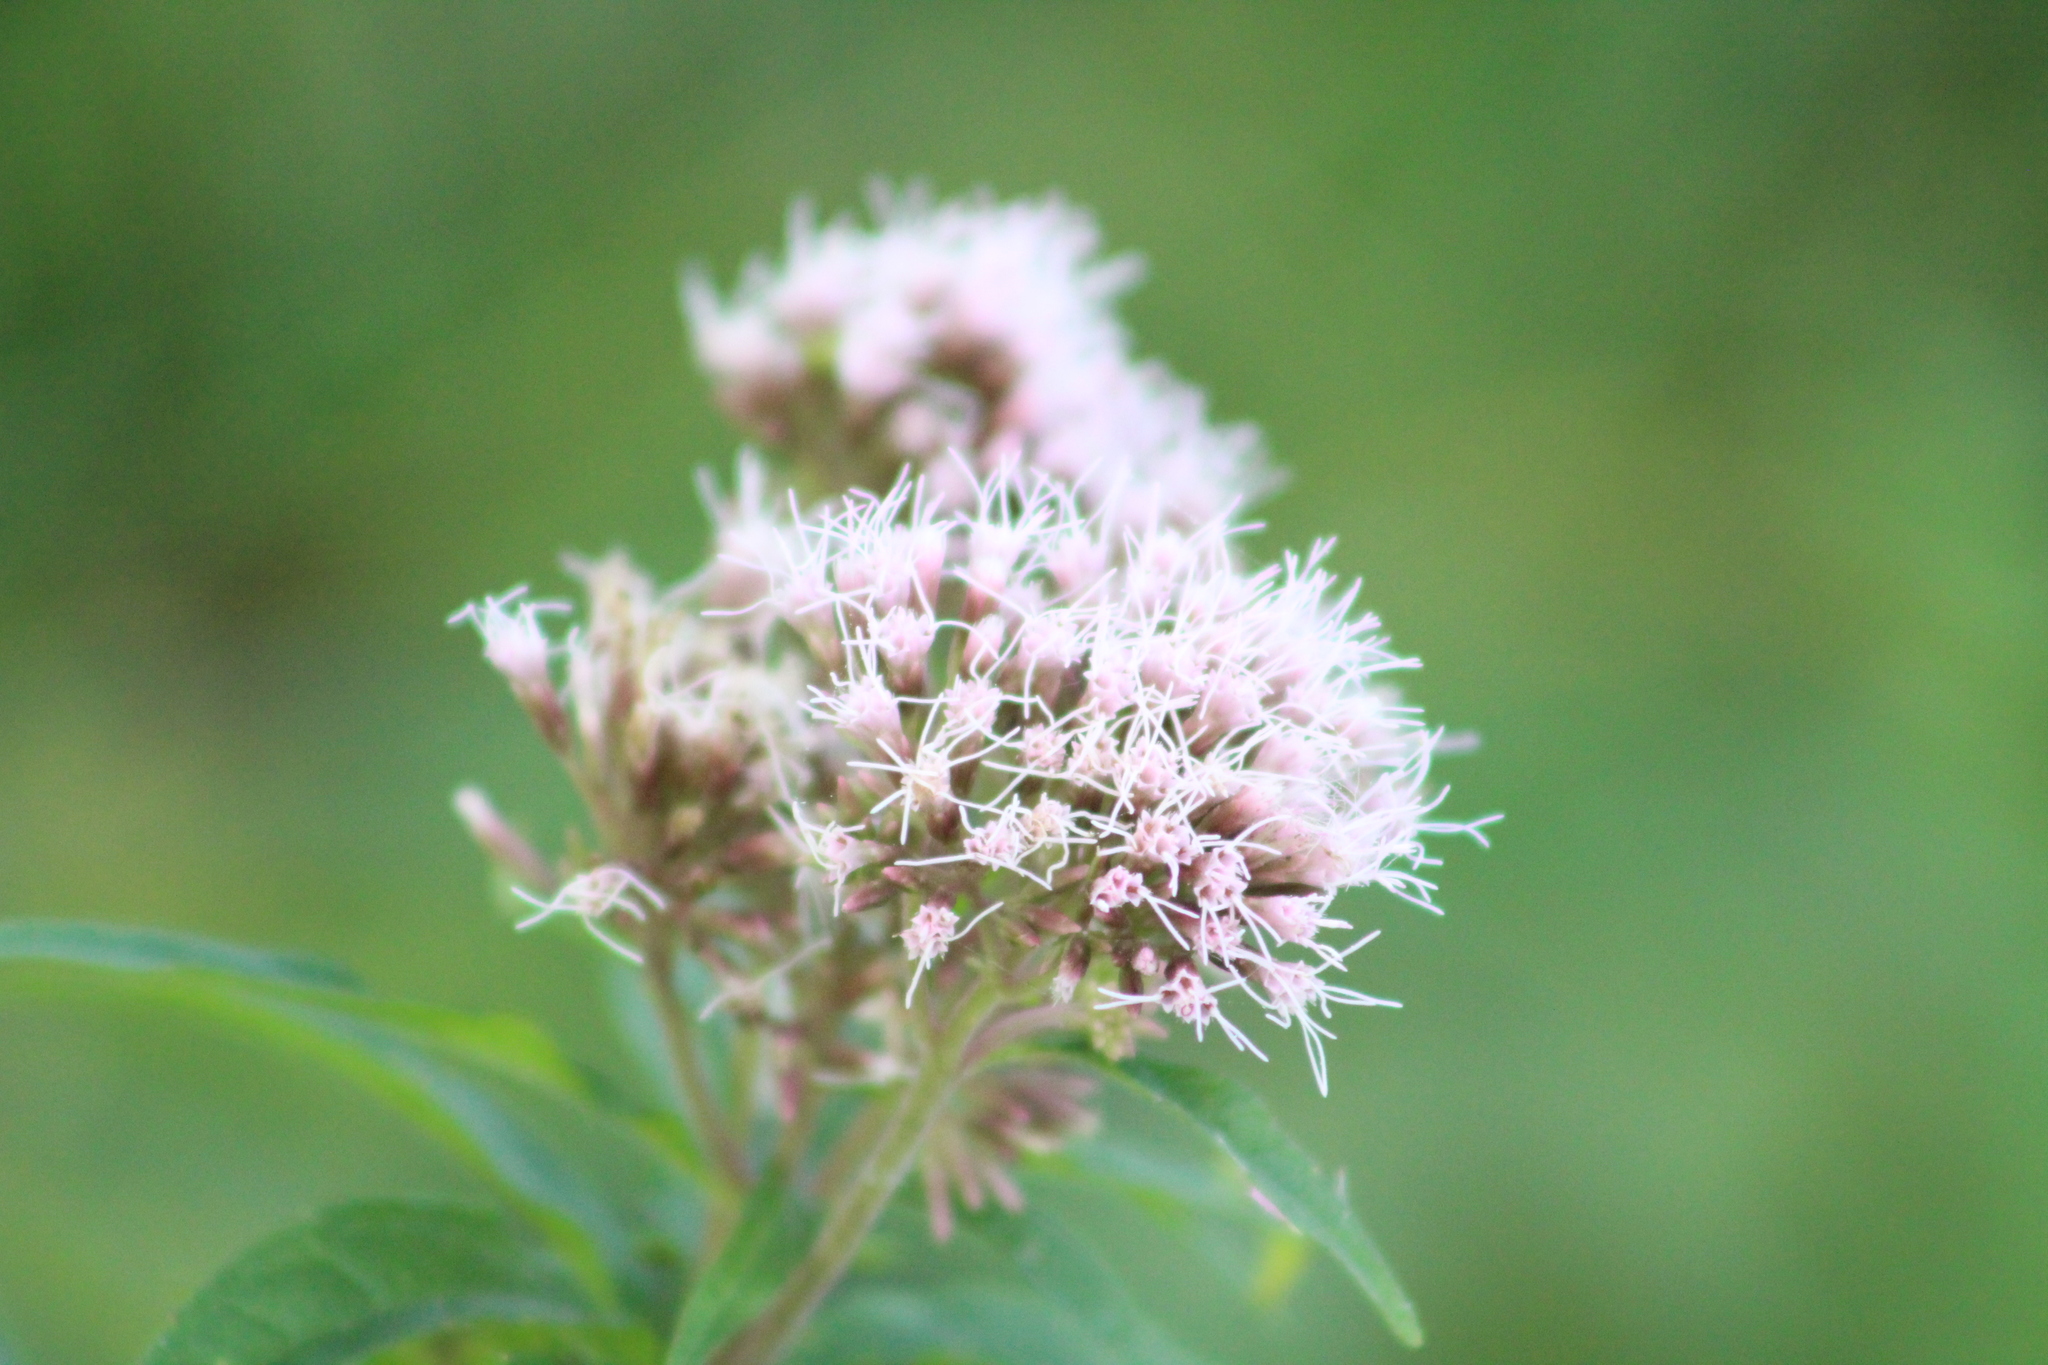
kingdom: Plantae
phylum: Tracheophyta
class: Magnoliopsida
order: Asterales
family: Asteraceae
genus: Eupatorium
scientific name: Eupatorium cannabinum
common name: Hemp-agrimony
